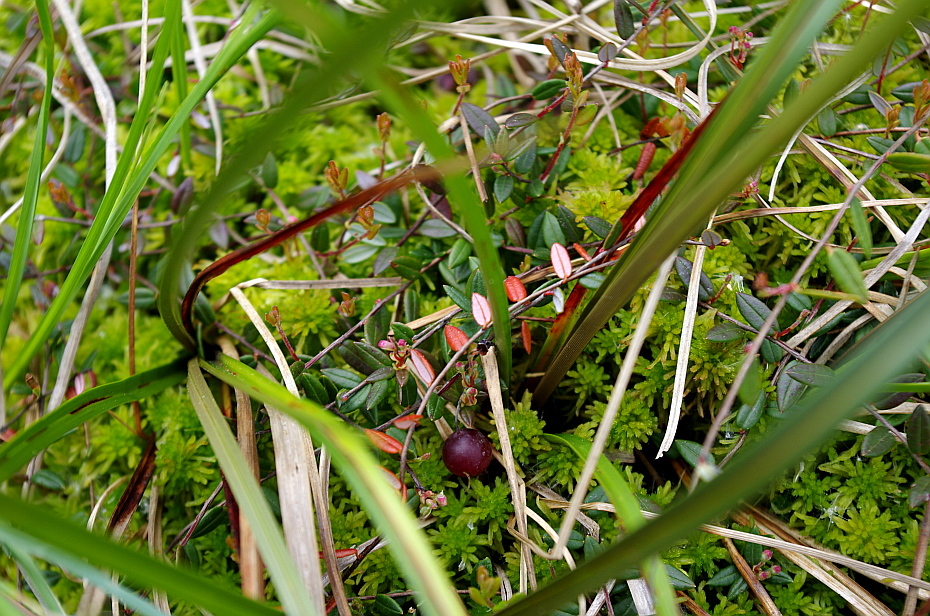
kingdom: Plantae
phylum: Tracheophyta
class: Magnoliopsida
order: Ericales
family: Ericaceae
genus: Vaccinium
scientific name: Vaccinium oxycoccos
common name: Cranberry
